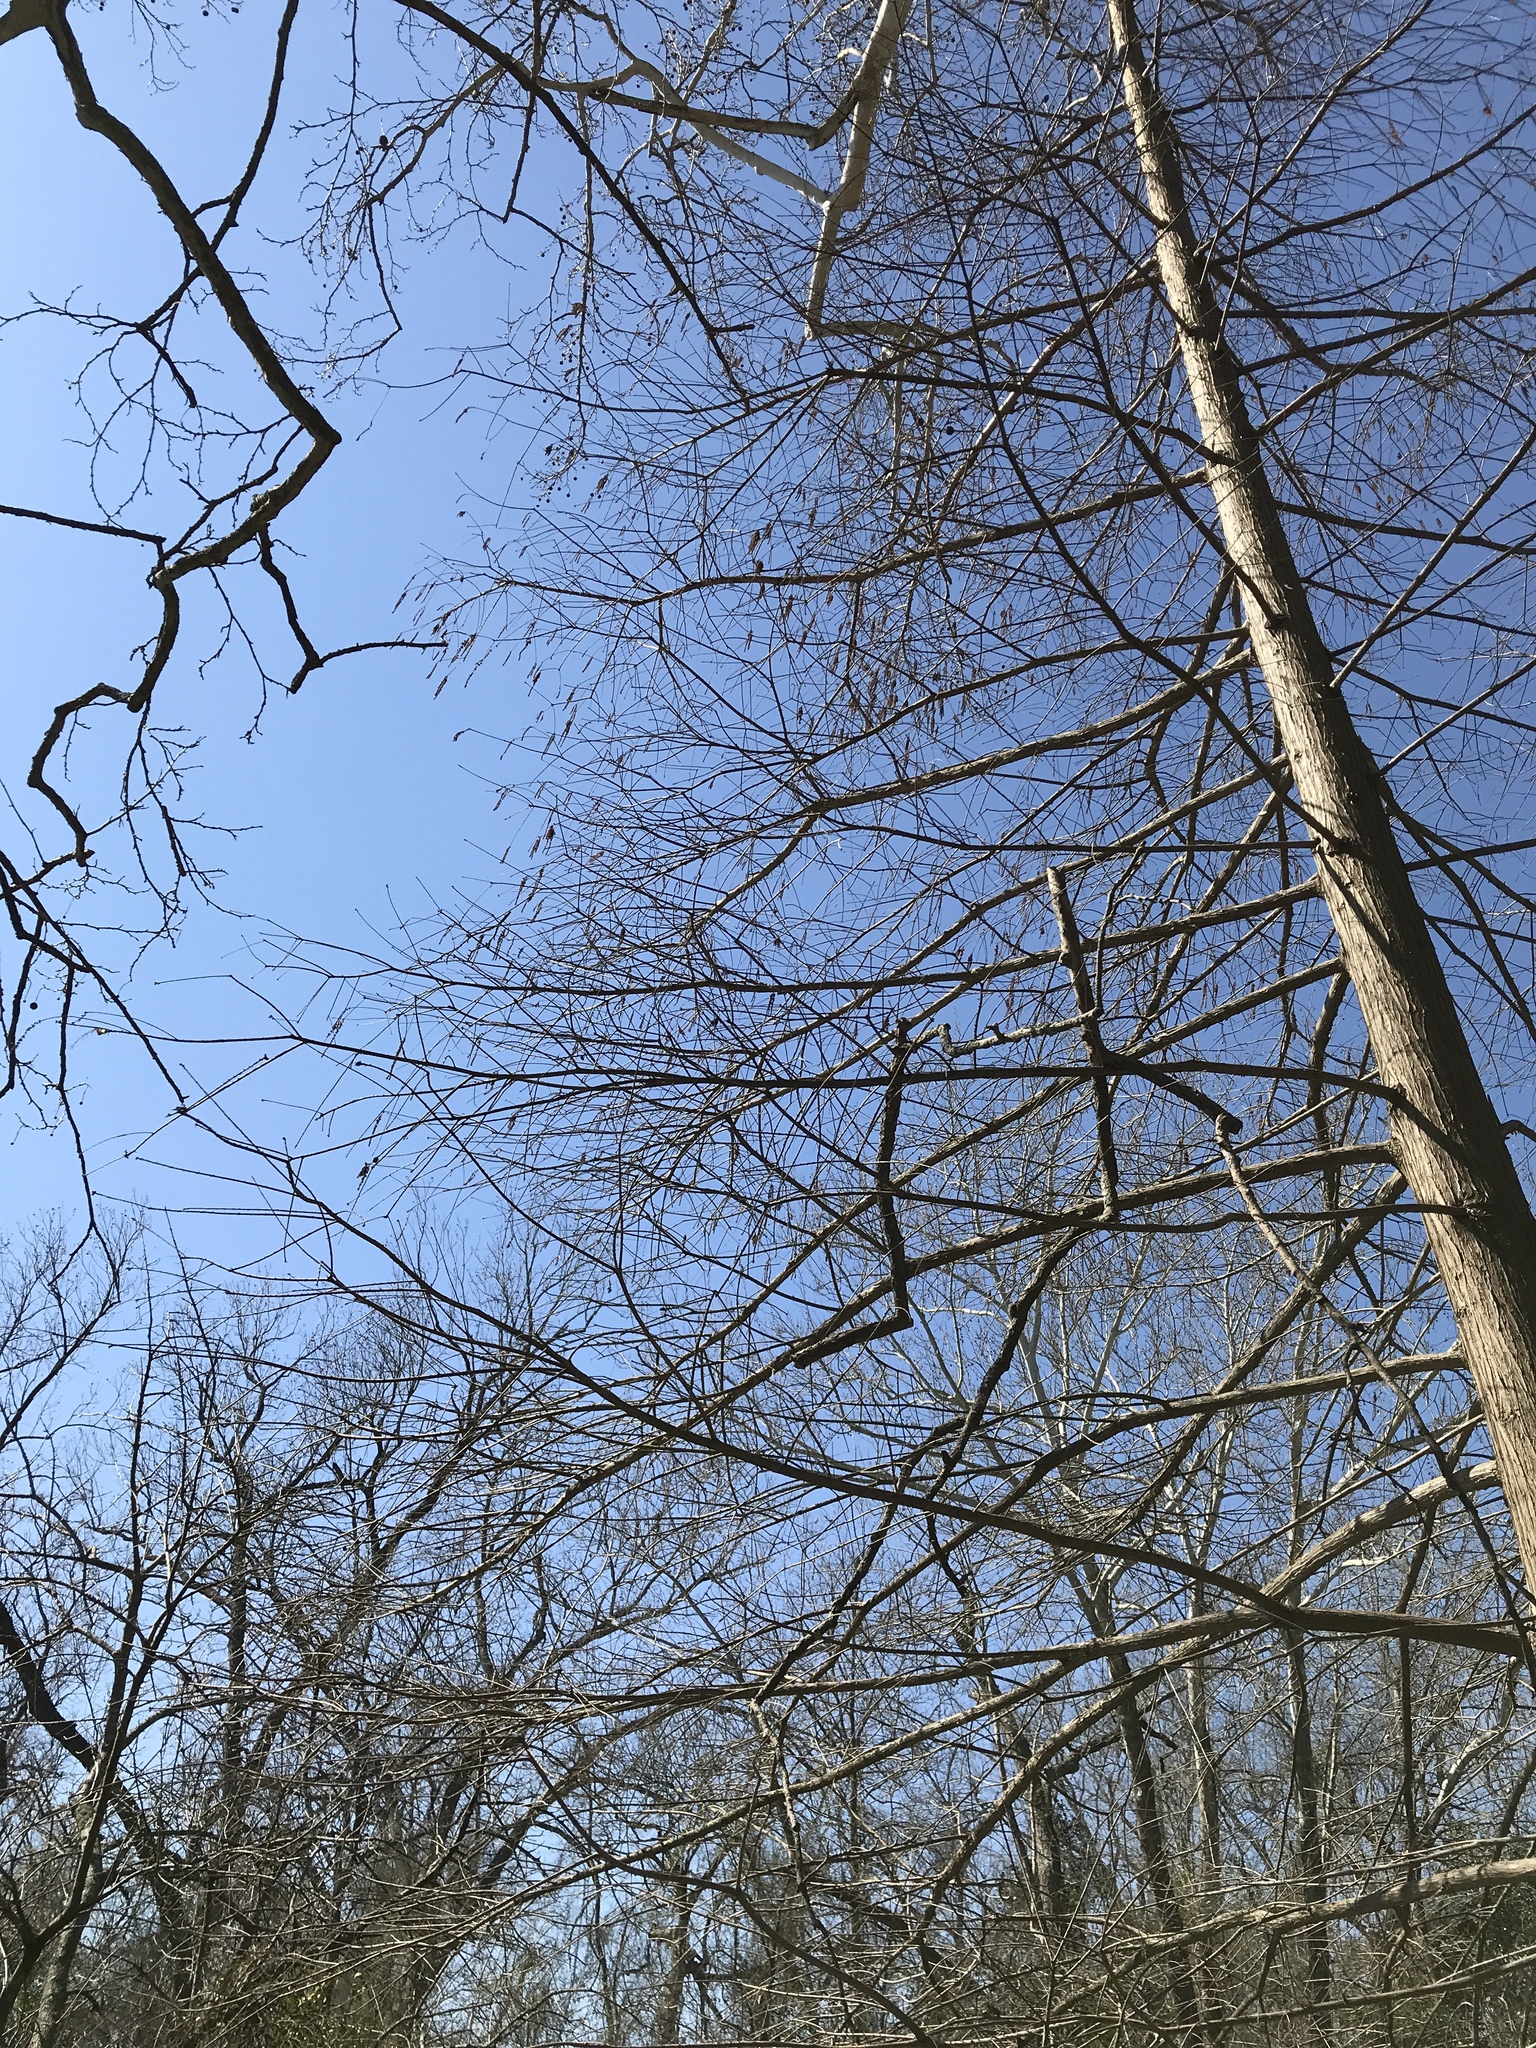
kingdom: Plantae
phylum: Tracheophyta
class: Pinopsida
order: Pinales
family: Cupressaceae
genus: Taxodium
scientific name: Taxodium distichum
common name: Bald cypress
